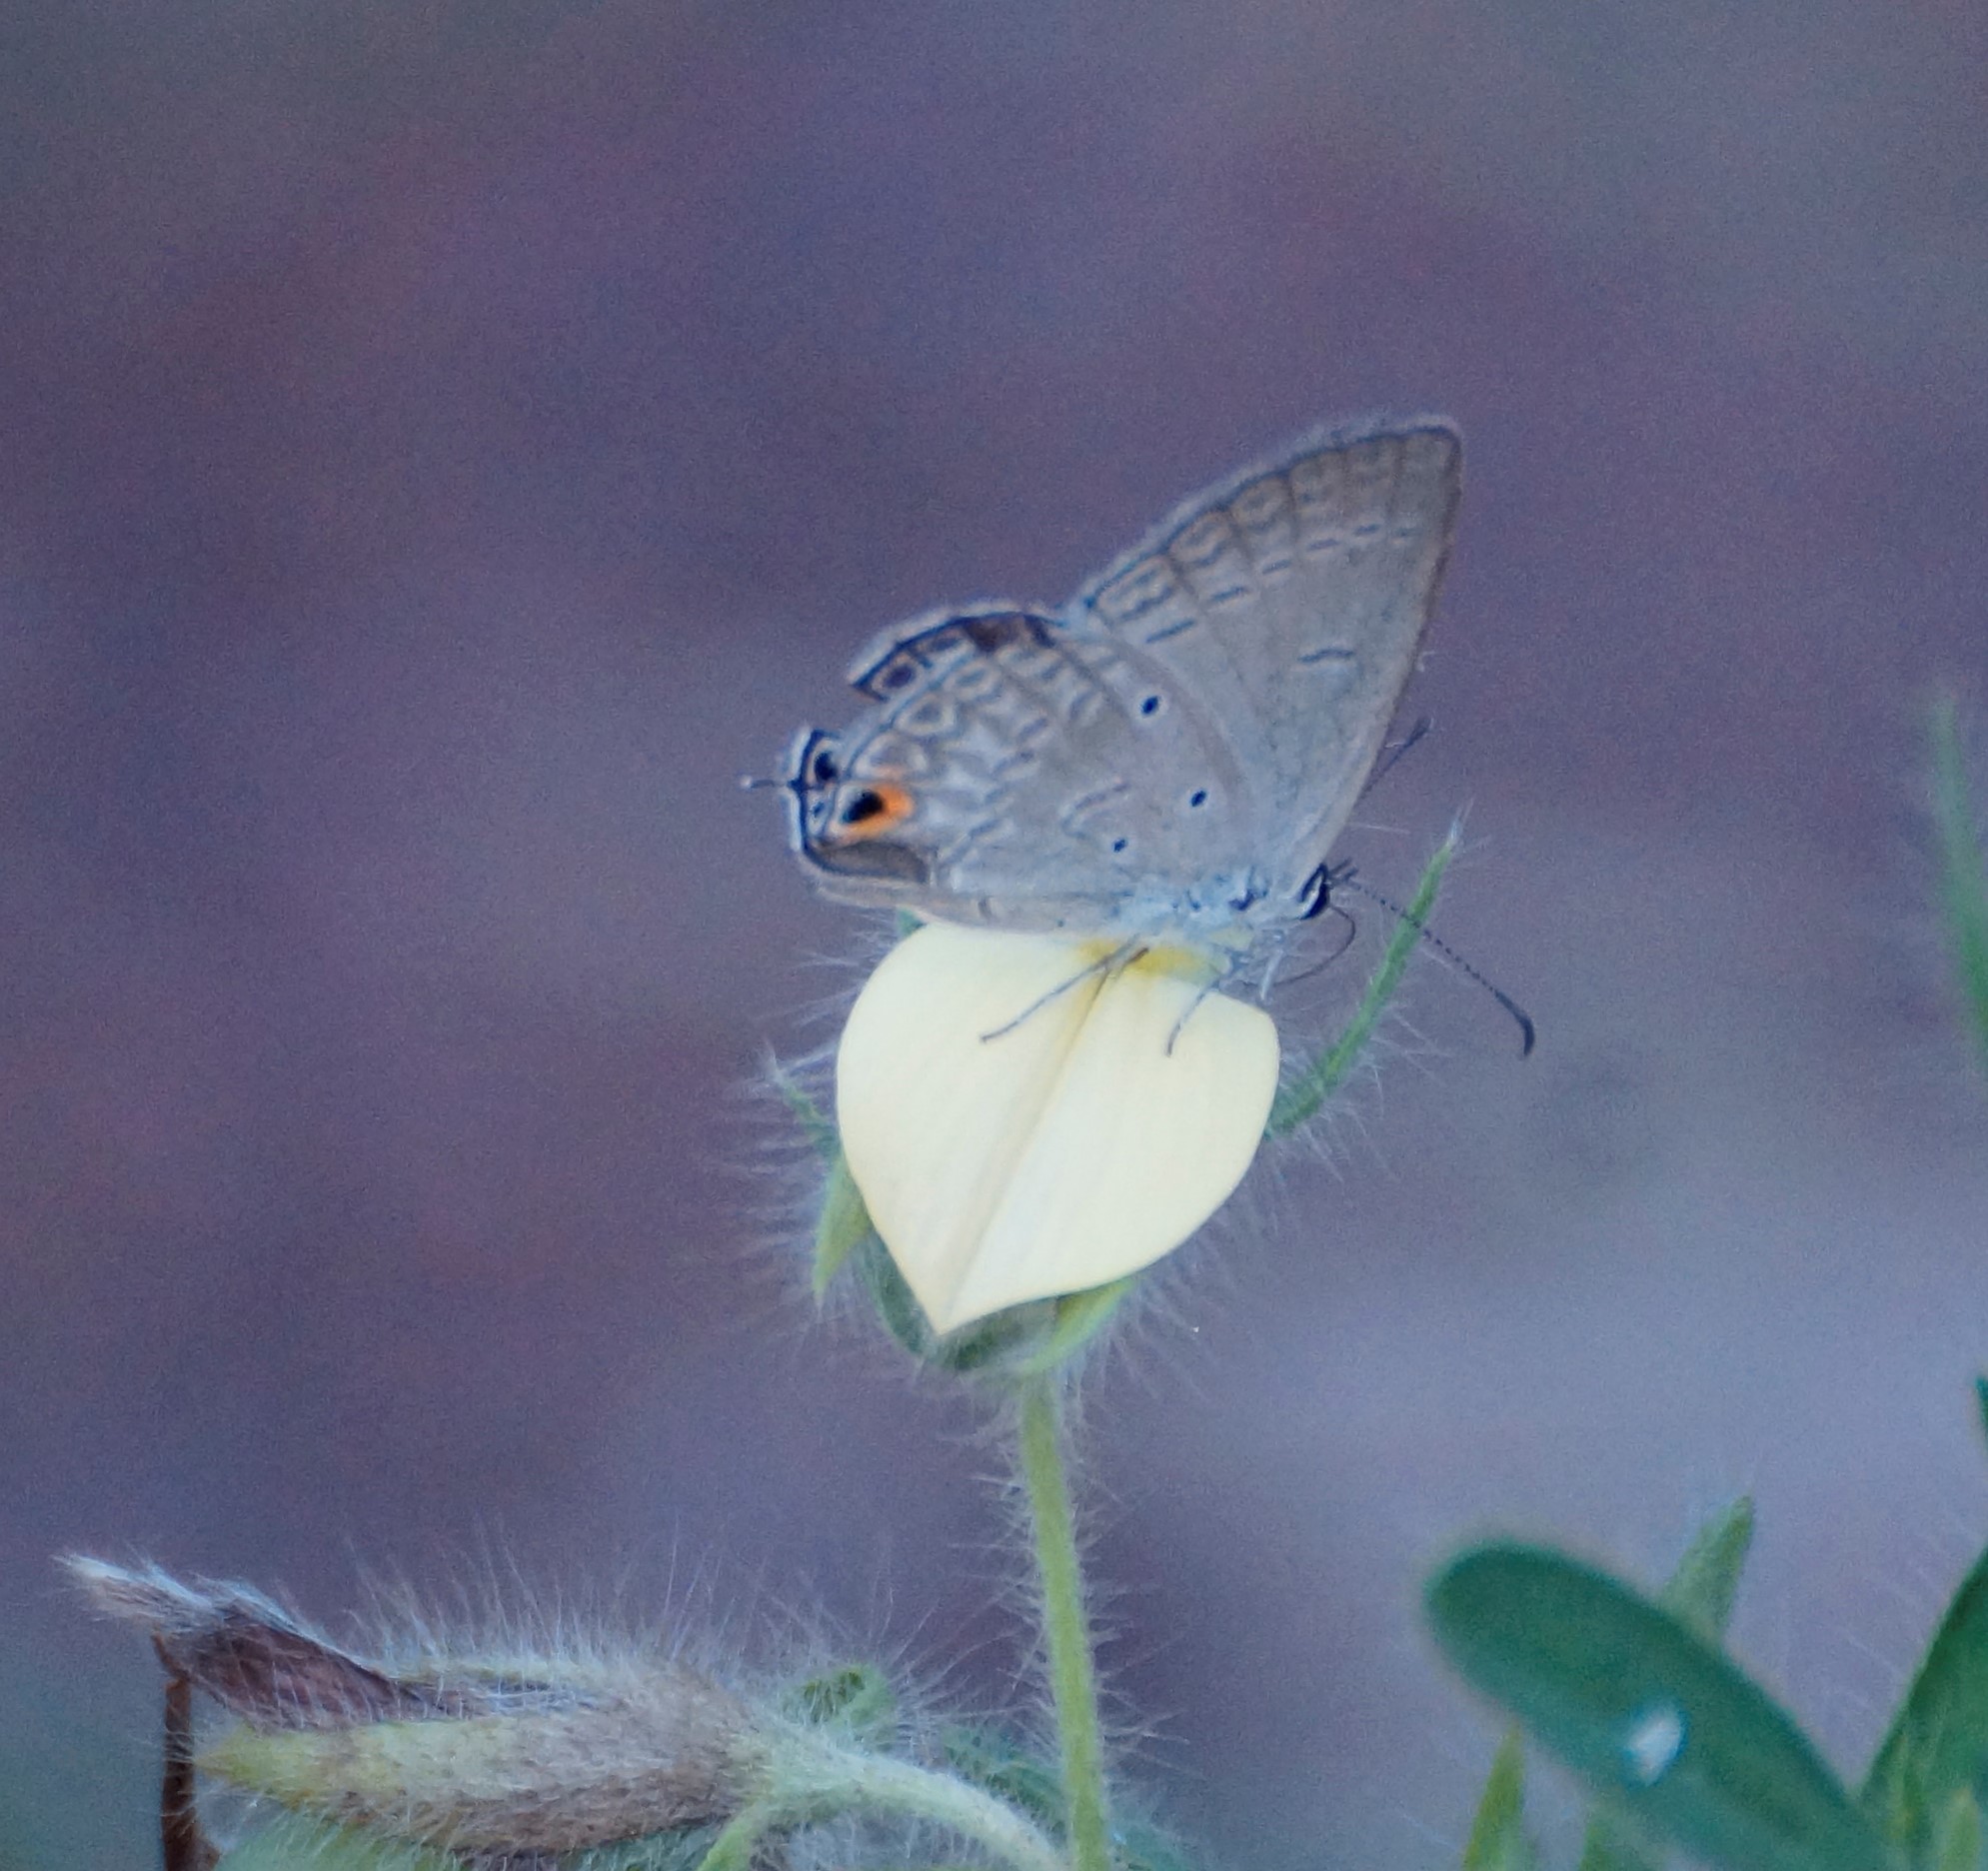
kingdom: Animalia
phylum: Arthropoda
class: Insecta
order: Lepidoptera
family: Lycaenidae
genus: Euchrysops
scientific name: Euchrysops cnejus
